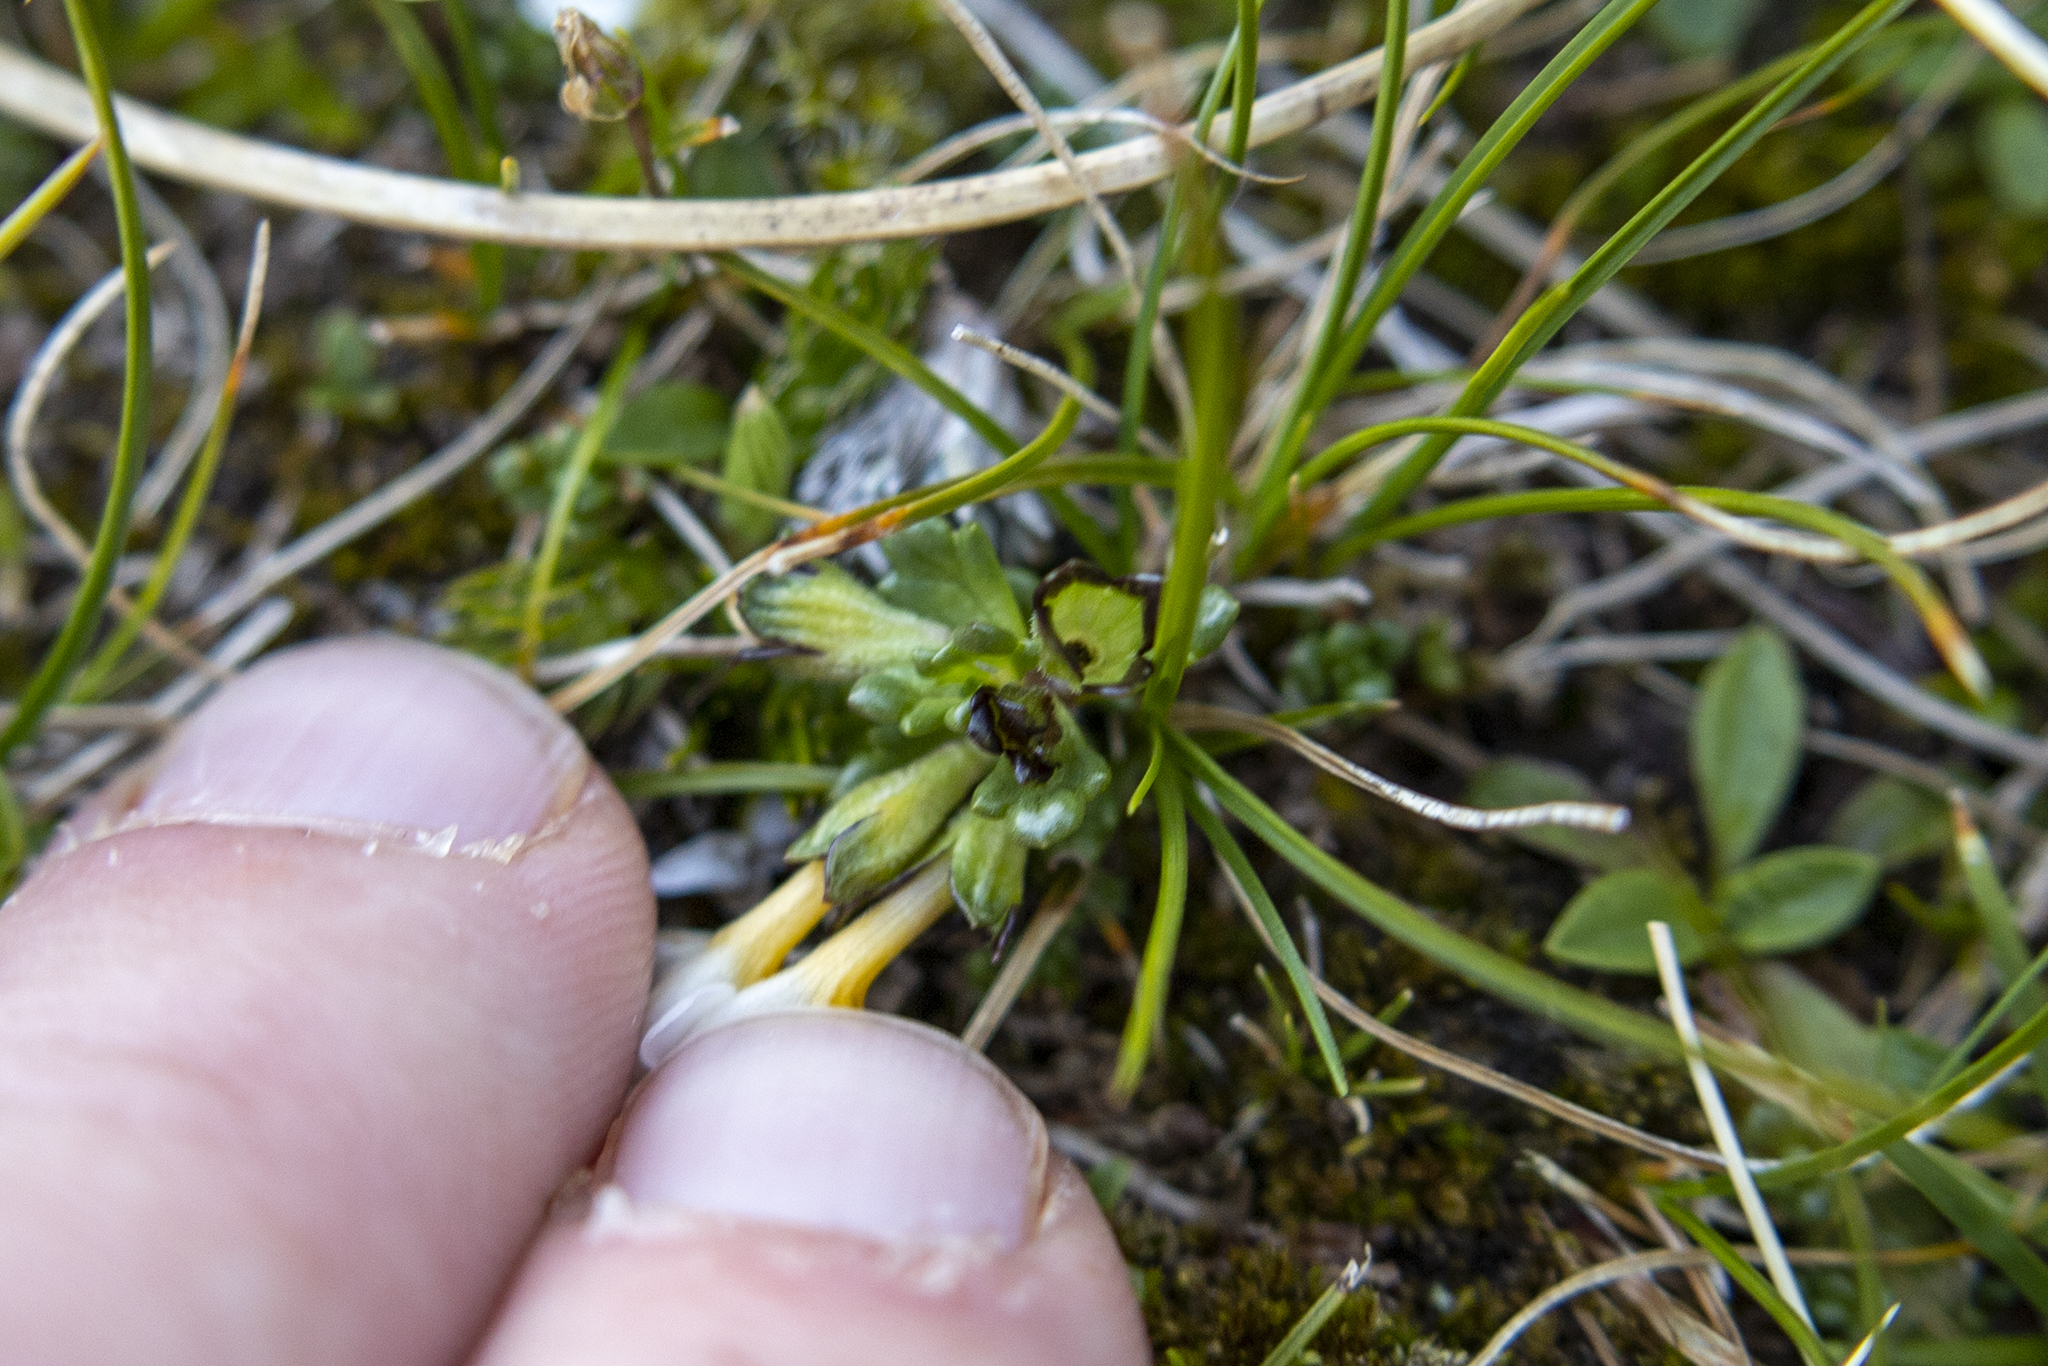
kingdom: Plantae
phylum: Tracheophyta
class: Magnoliopsida
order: Lamiales
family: Orobanchaceae
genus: Euphrasia
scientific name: Euphrasia revoluta
